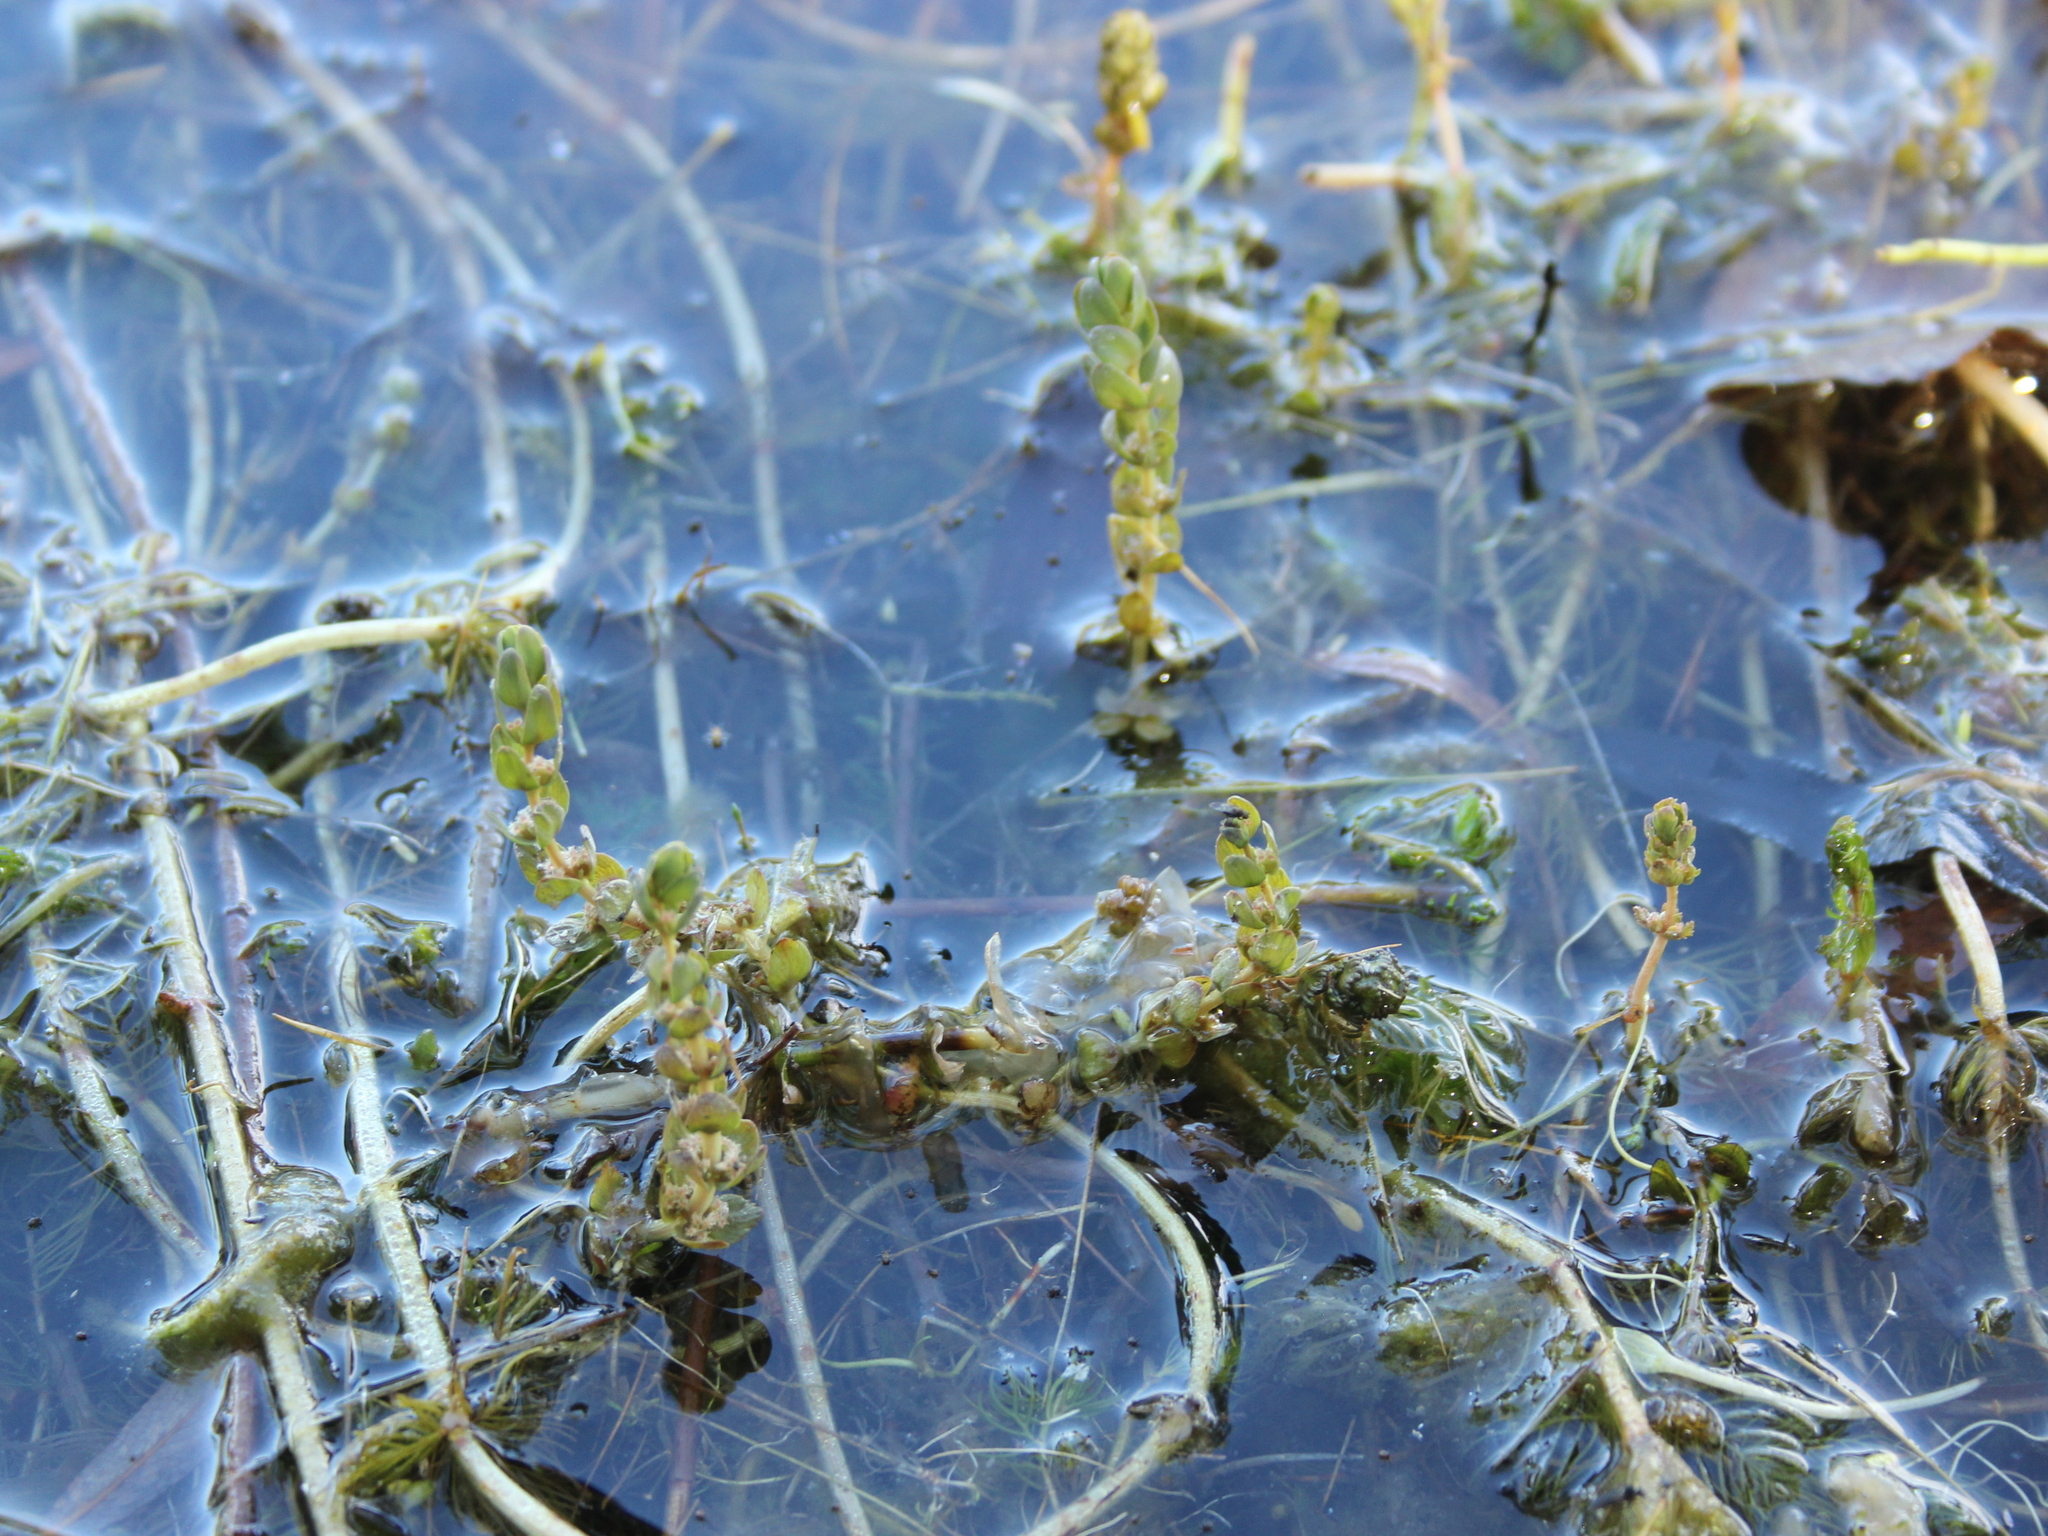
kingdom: Plantae
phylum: Tracheophyta
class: Magnoliopsida
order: Saxifragales
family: Haloragaceae
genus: Myriophyllum
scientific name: Myriophyllum triphyllum
